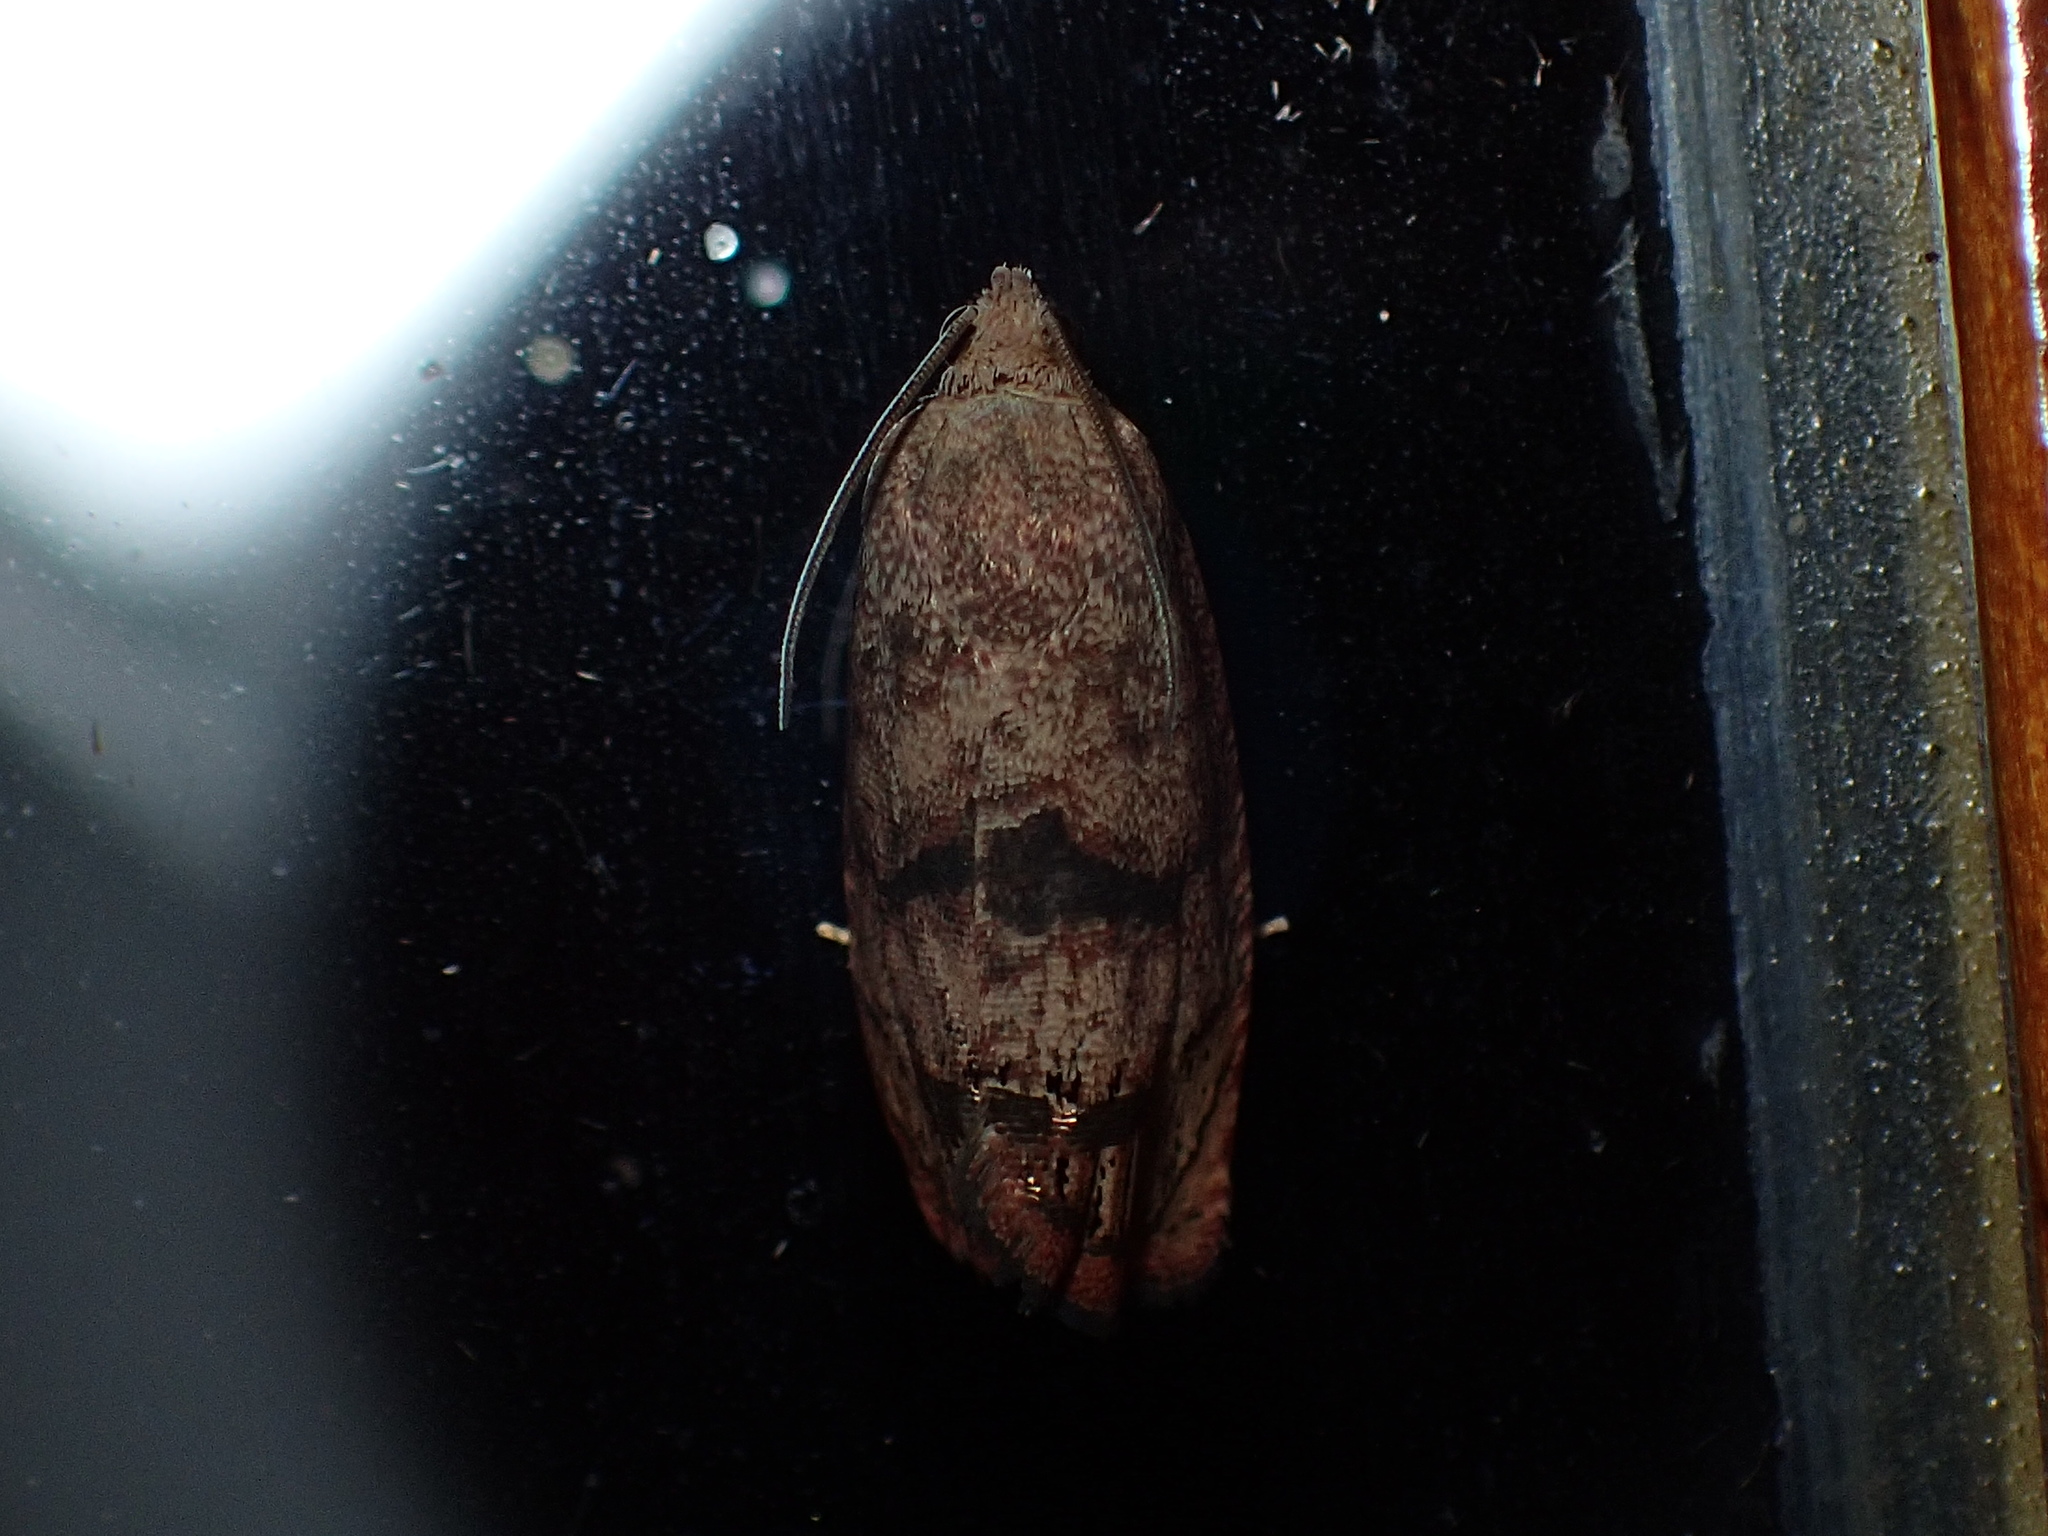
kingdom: Animalia
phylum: Arthropoda
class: Insecta
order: Lepidoptera
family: Tortricidae
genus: Cydia
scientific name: Cydia latiferreana
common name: Filbertworm moth
